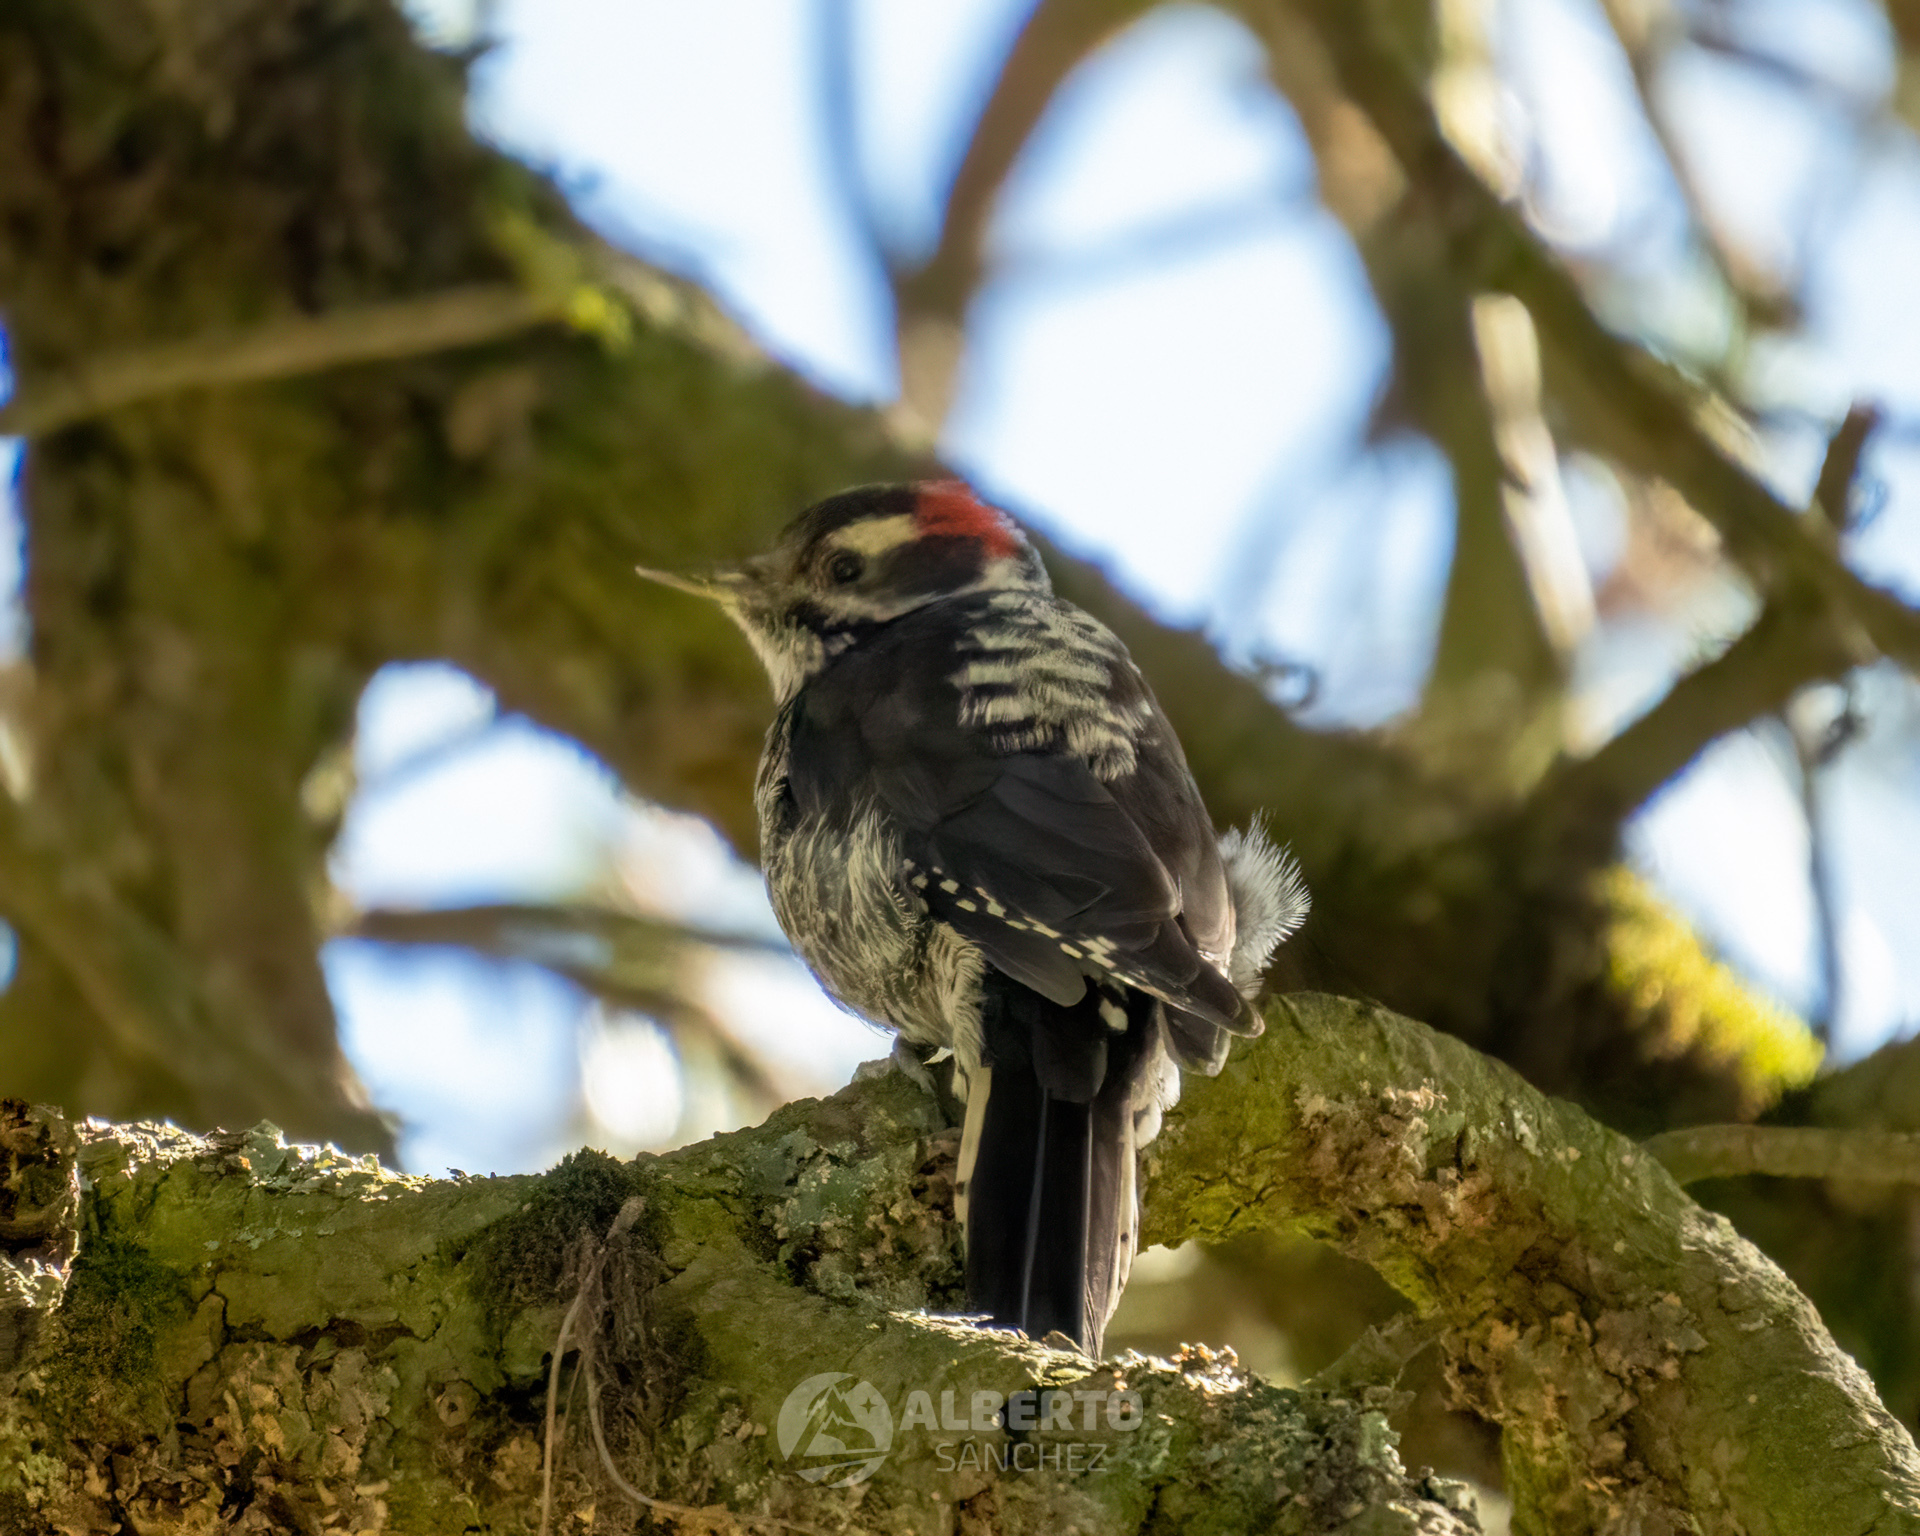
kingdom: Animalia
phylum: Chordata
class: Aves
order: Piciformes
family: Picidae
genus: Leuconotopicus
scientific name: Leuconotopicus stricklandi
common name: Strickland's woodpecker
